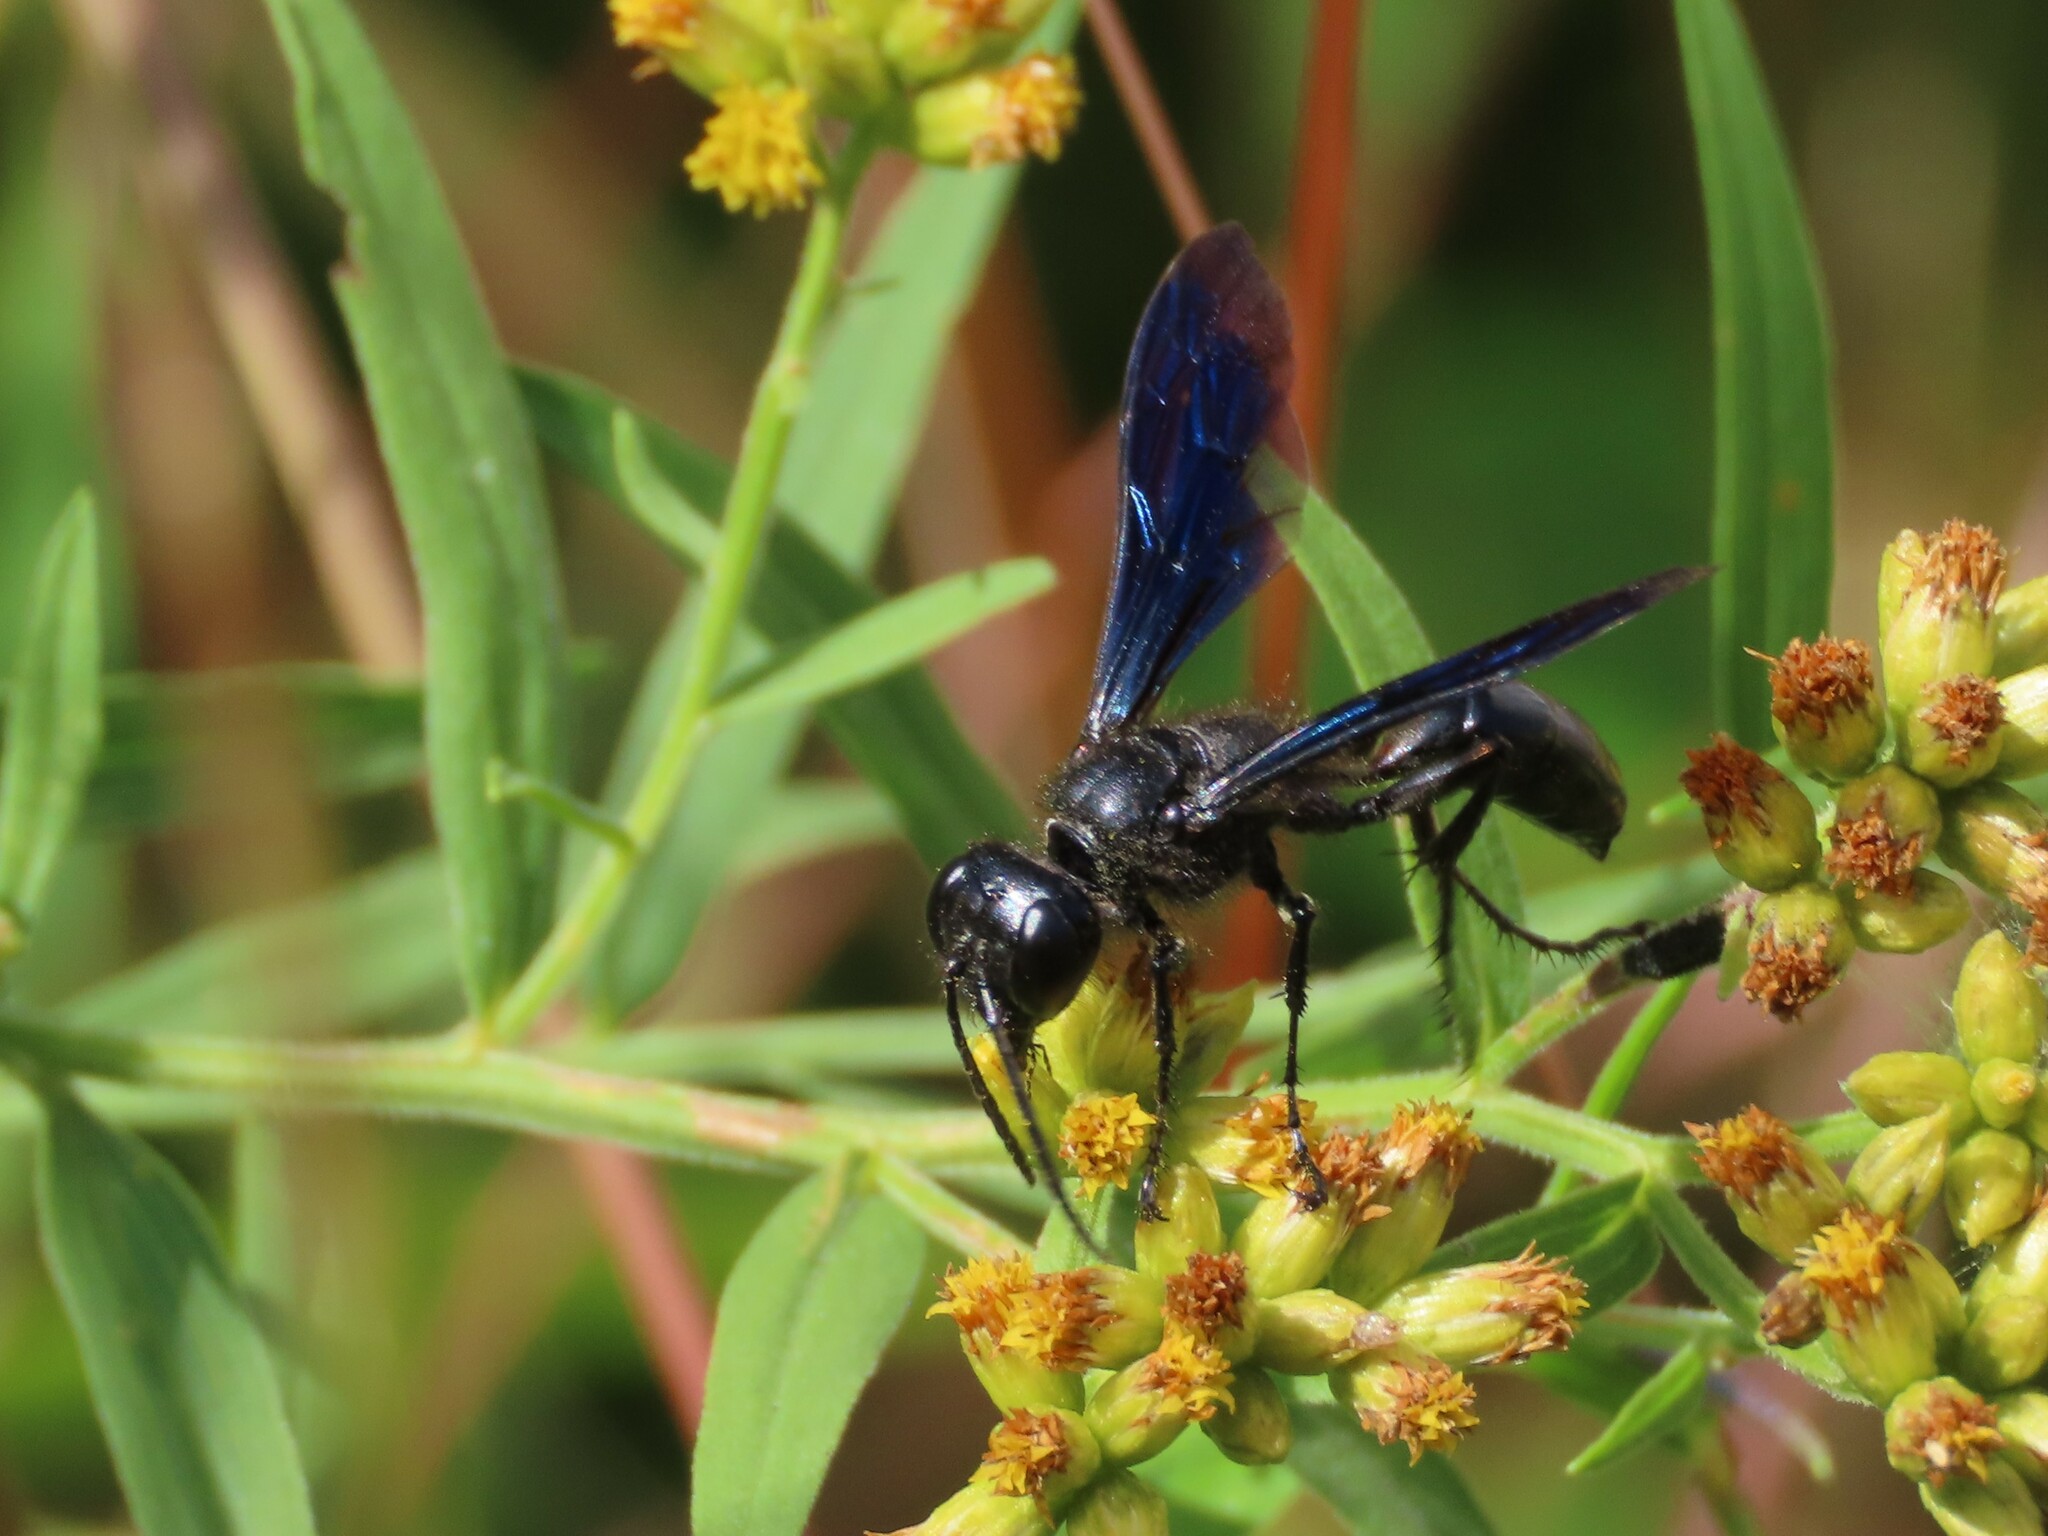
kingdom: Animalia
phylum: Arthropoda
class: Insecta
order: Hymenoptera
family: Sphecidae
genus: Isodontia
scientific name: Isodontia philadelphica
